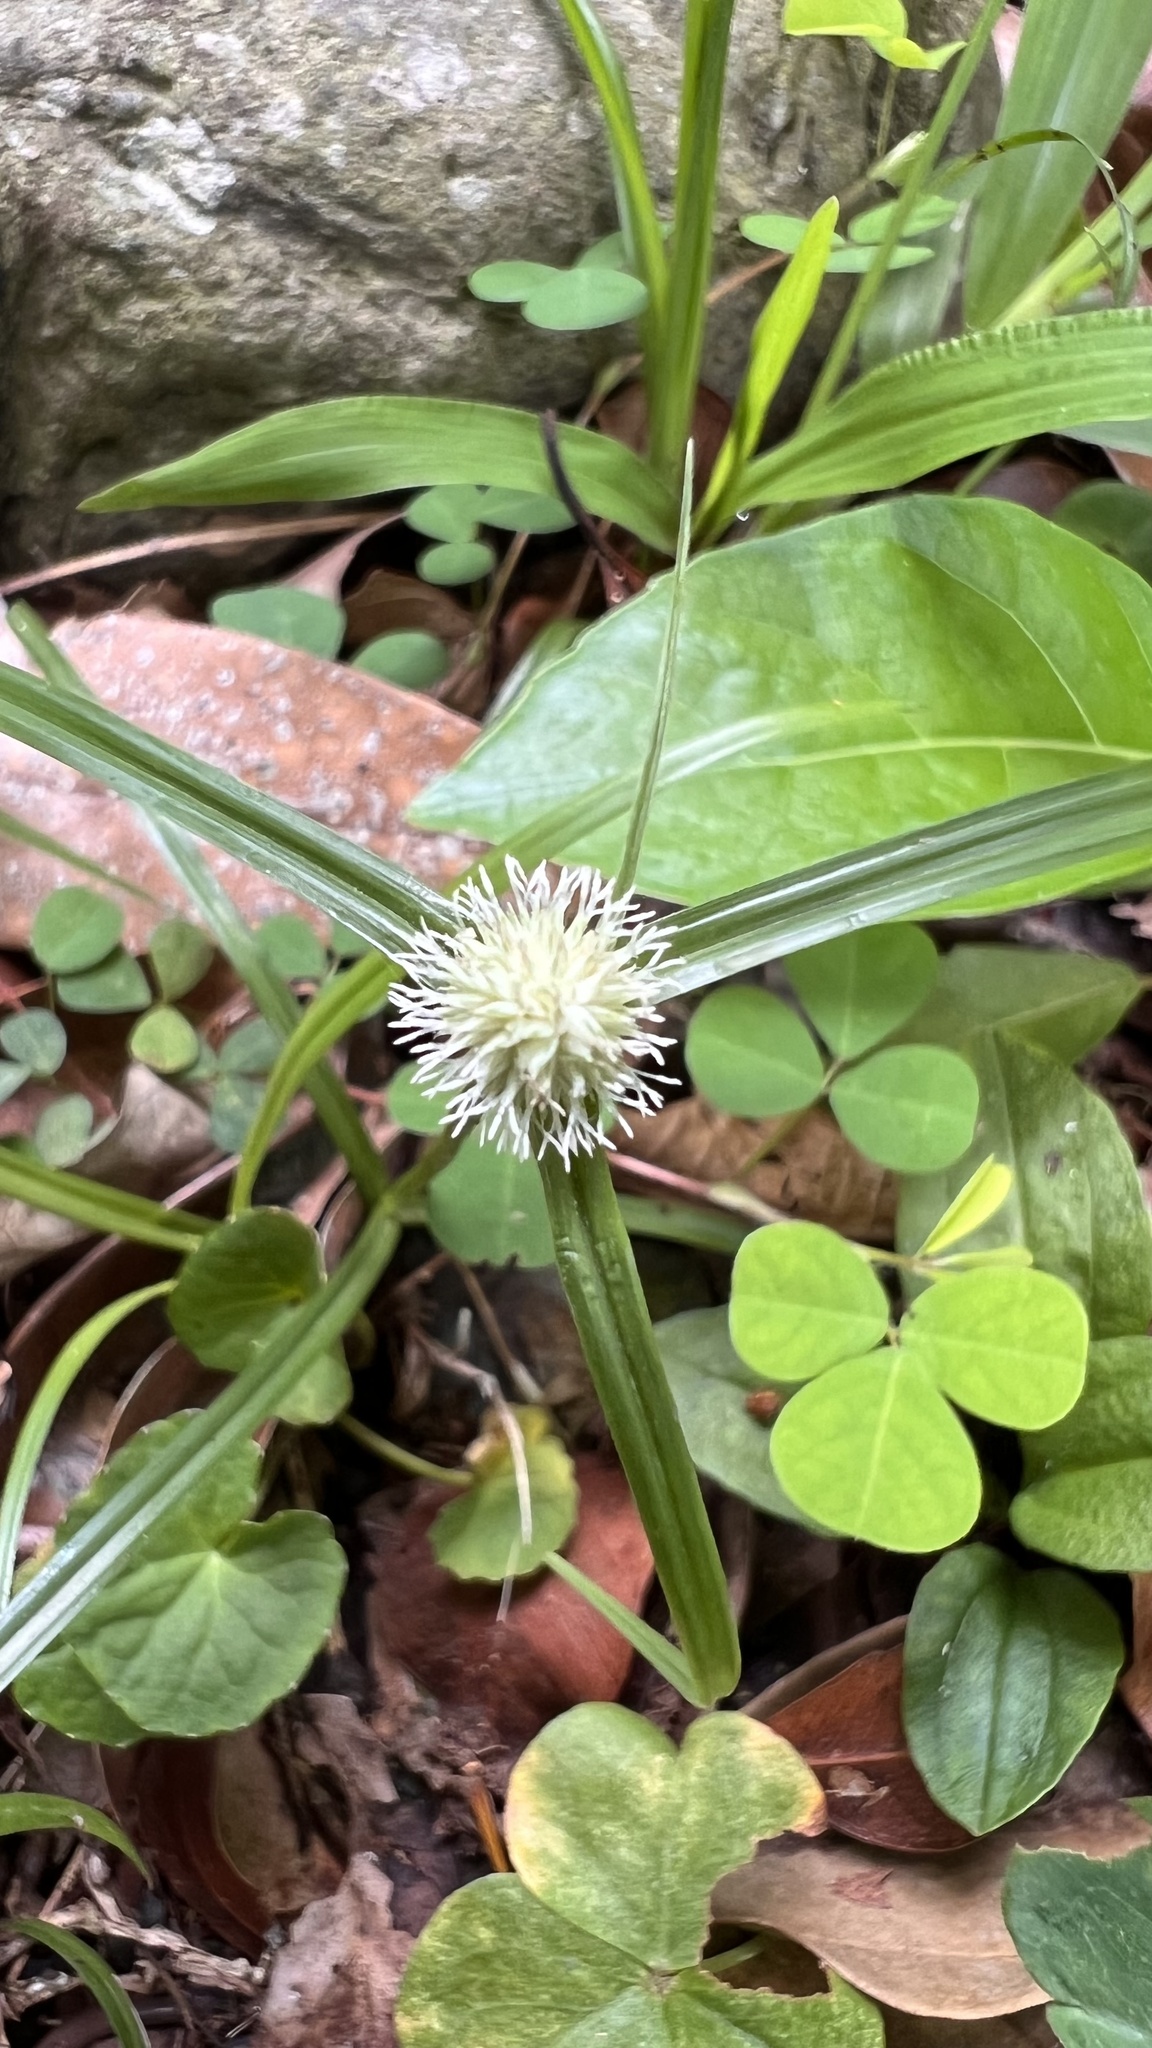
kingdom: Plantae
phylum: Tracheophyta
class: Liliopsida
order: Poales
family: Cyperaceae
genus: Cyperus
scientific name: Cyperus mindorensis
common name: Flatsedge
